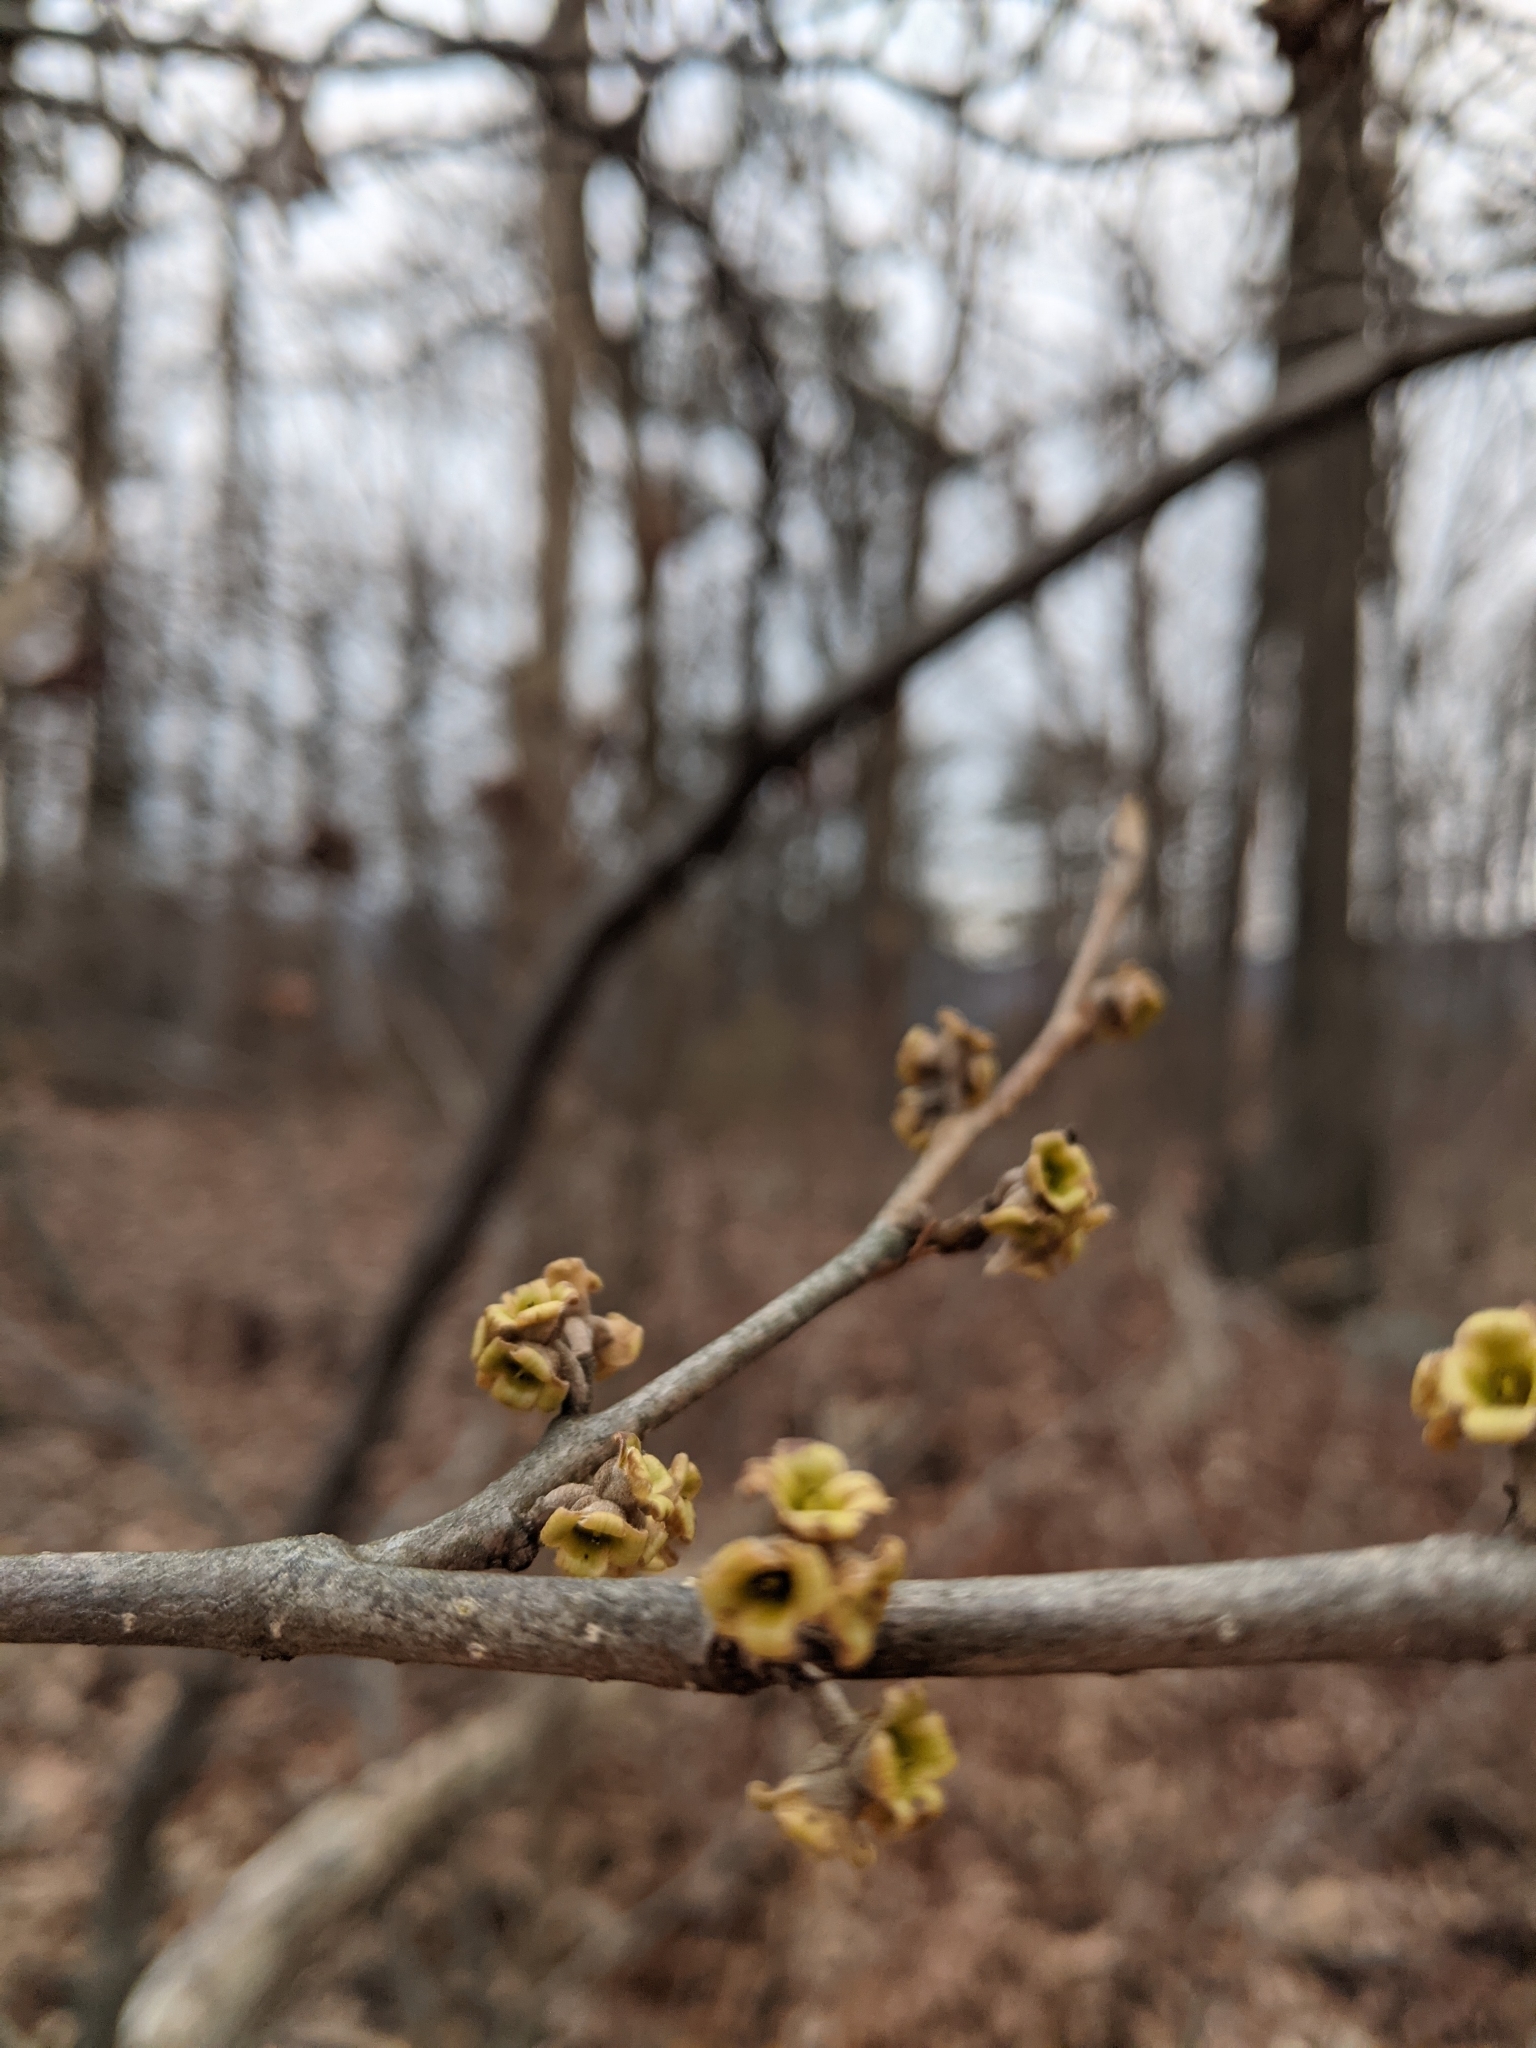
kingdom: Plantae
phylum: Tracheophyta
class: Magnoliopsida
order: Saxifragales
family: Hamamelidaceae
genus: Hamamelis
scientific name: Hamamelis virginiana
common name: Witch-hazel
